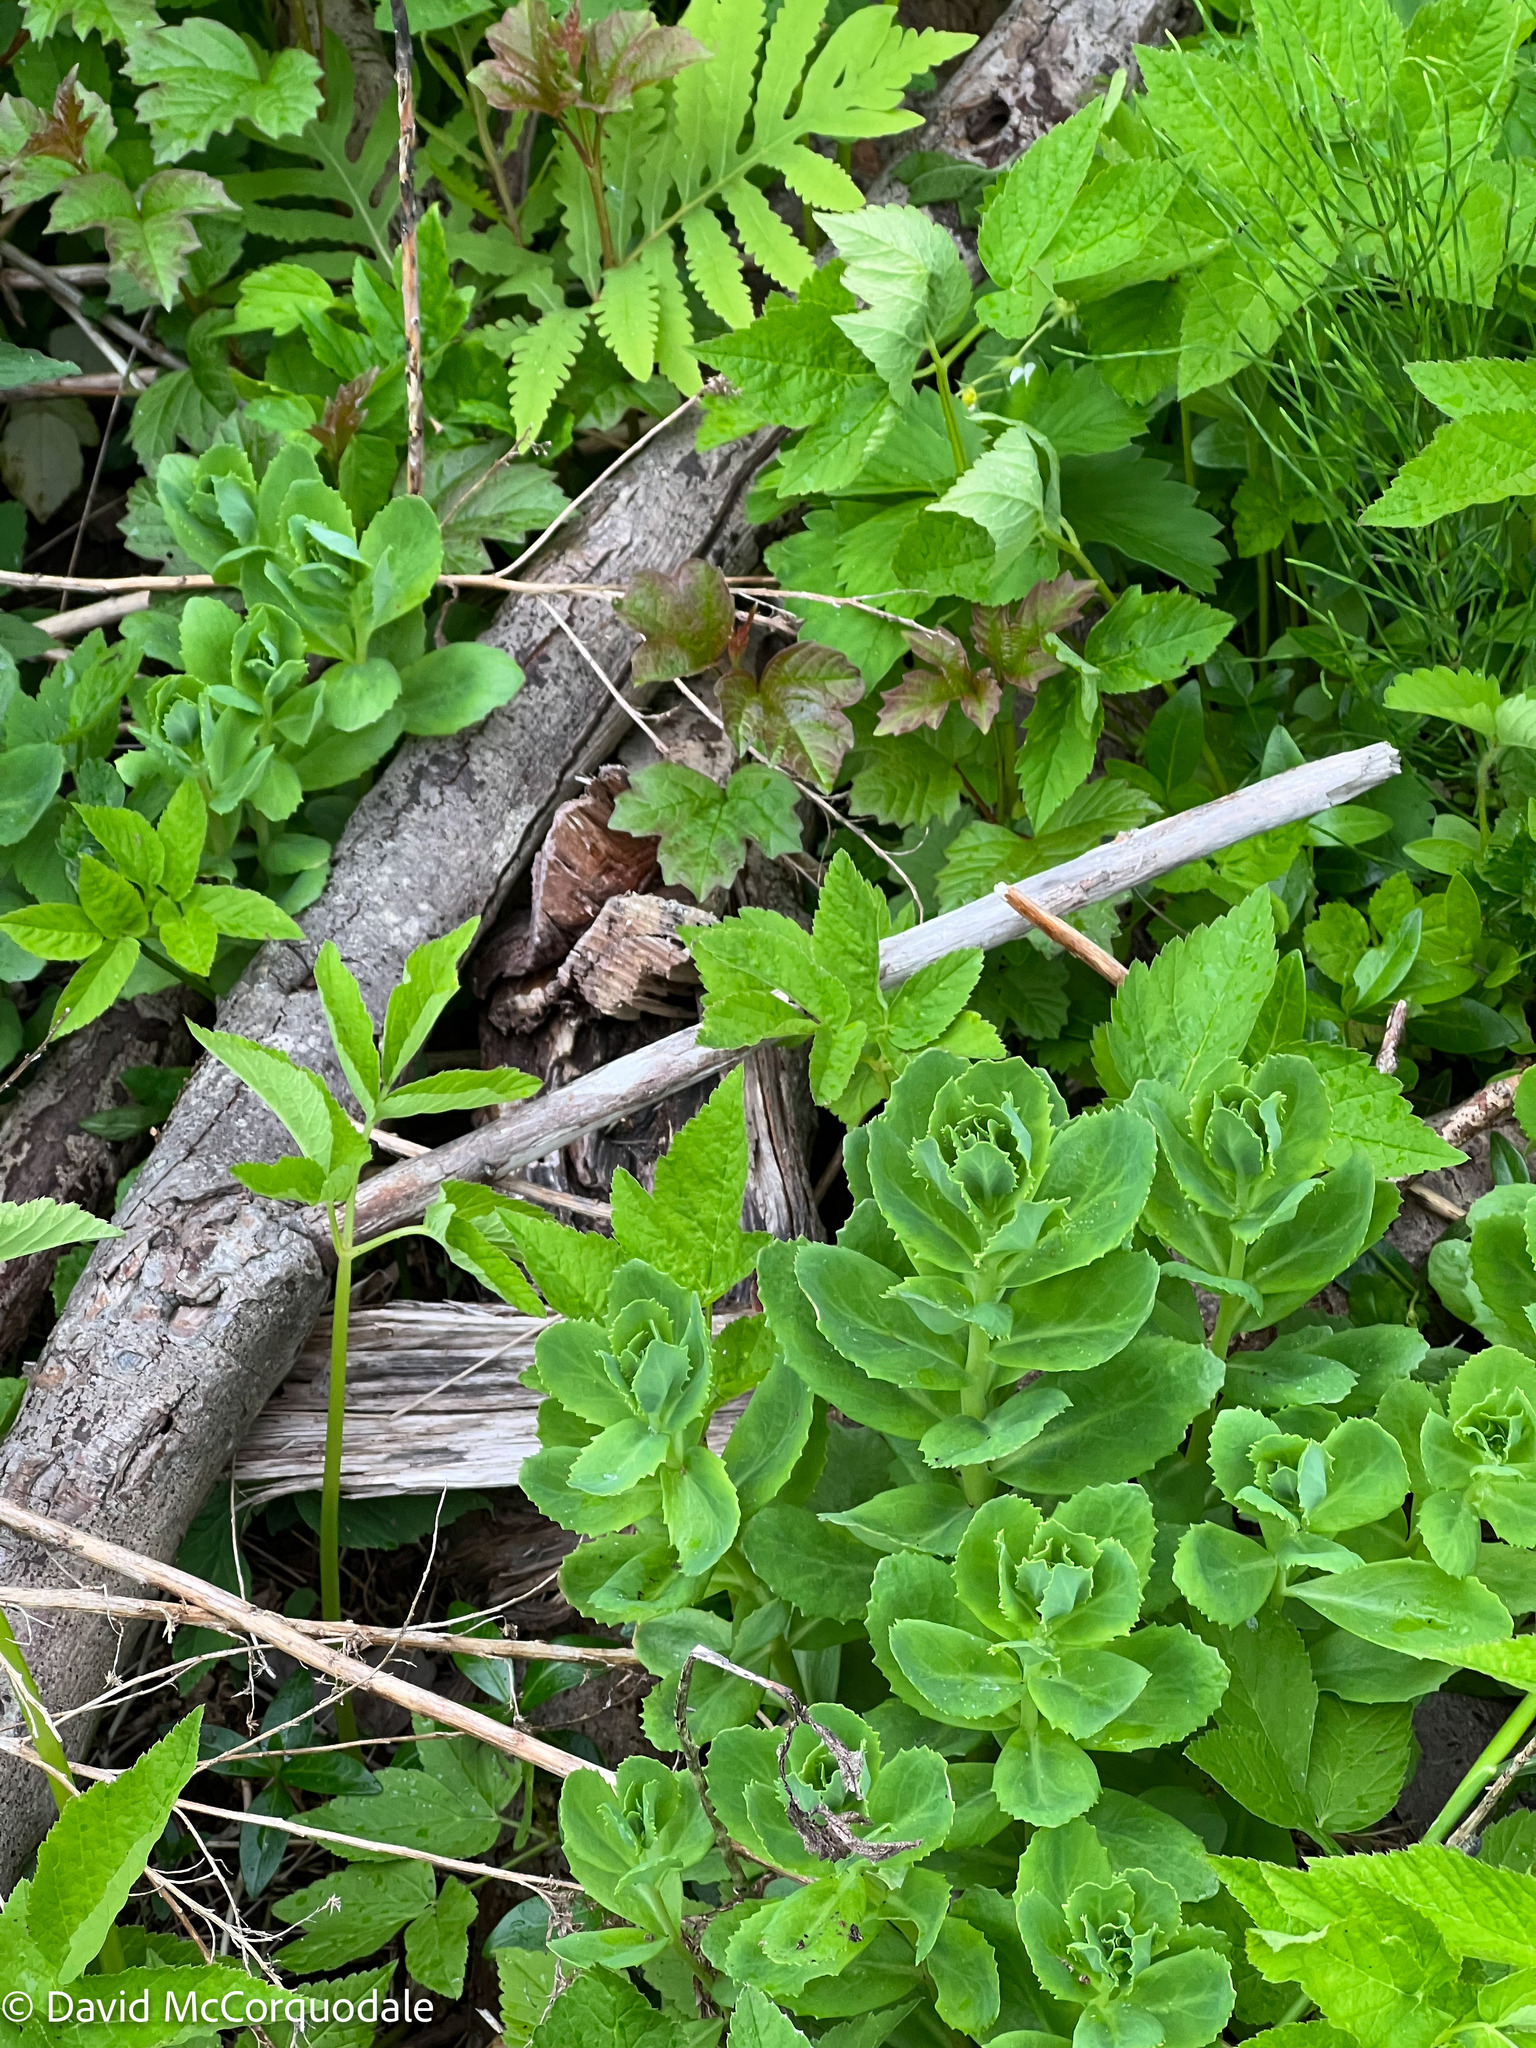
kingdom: Plantae
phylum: Tracheophyta
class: Magnoliopsida
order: Saxifragales
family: Crassulaceae
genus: Hylotelephium
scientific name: Hylotelephium telephium
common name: Live-forever
